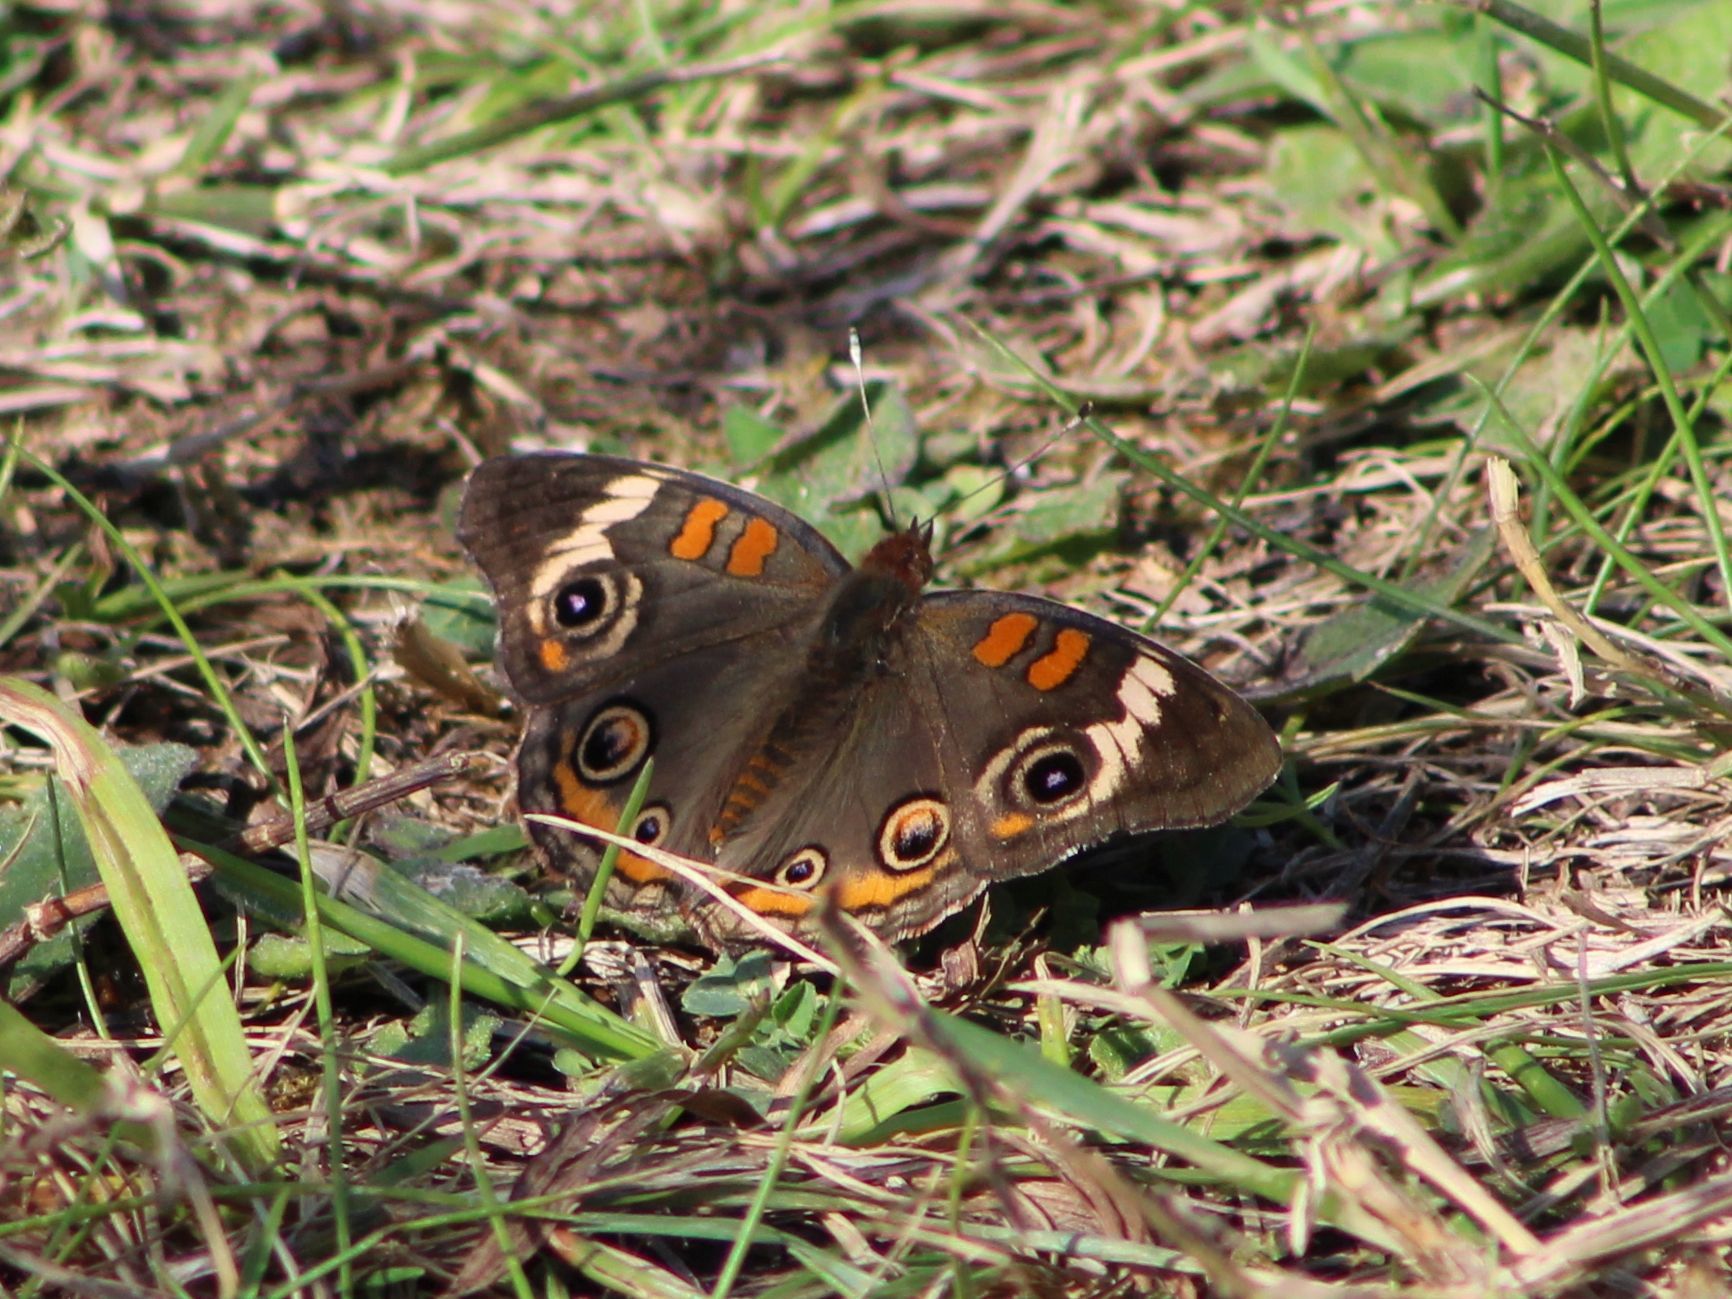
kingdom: Animalia
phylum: Arthropoda
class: Insecta
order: Lepidoptera
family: Nymphalidae
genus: Junonia
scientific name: Junonia coenia
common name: Common buckeye
